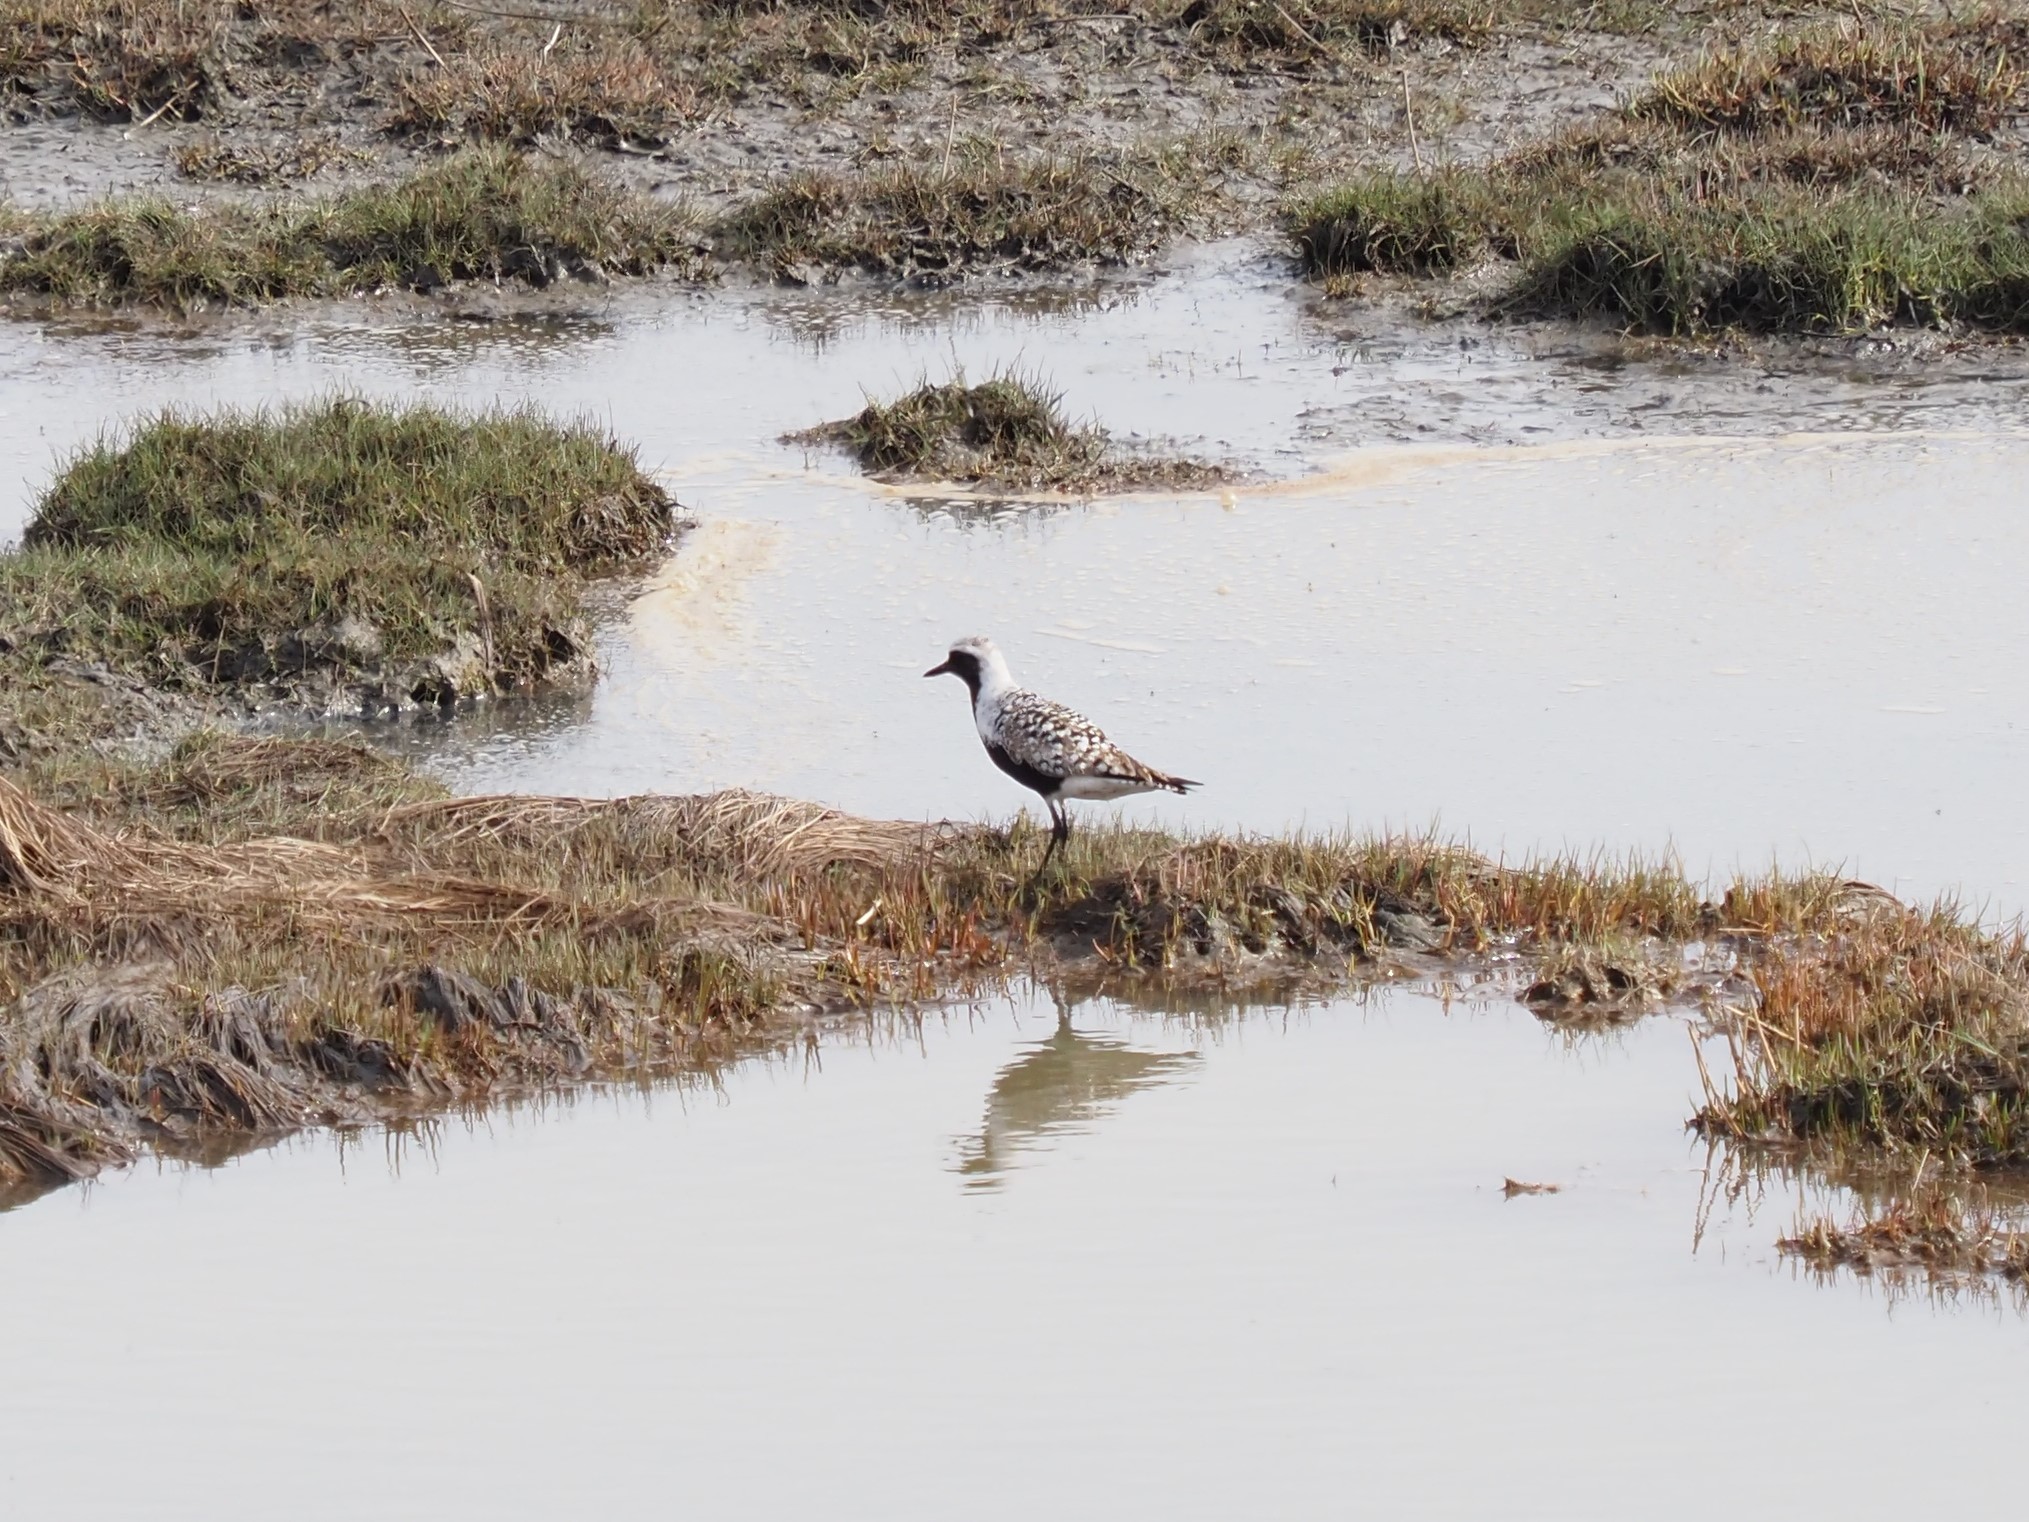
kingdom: Animalia
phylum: Chordata
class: Aves
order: Charadriiformes
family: Charadriidae
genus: Pluvialis
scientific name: Pluvialis squatarola
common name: Grey plover
